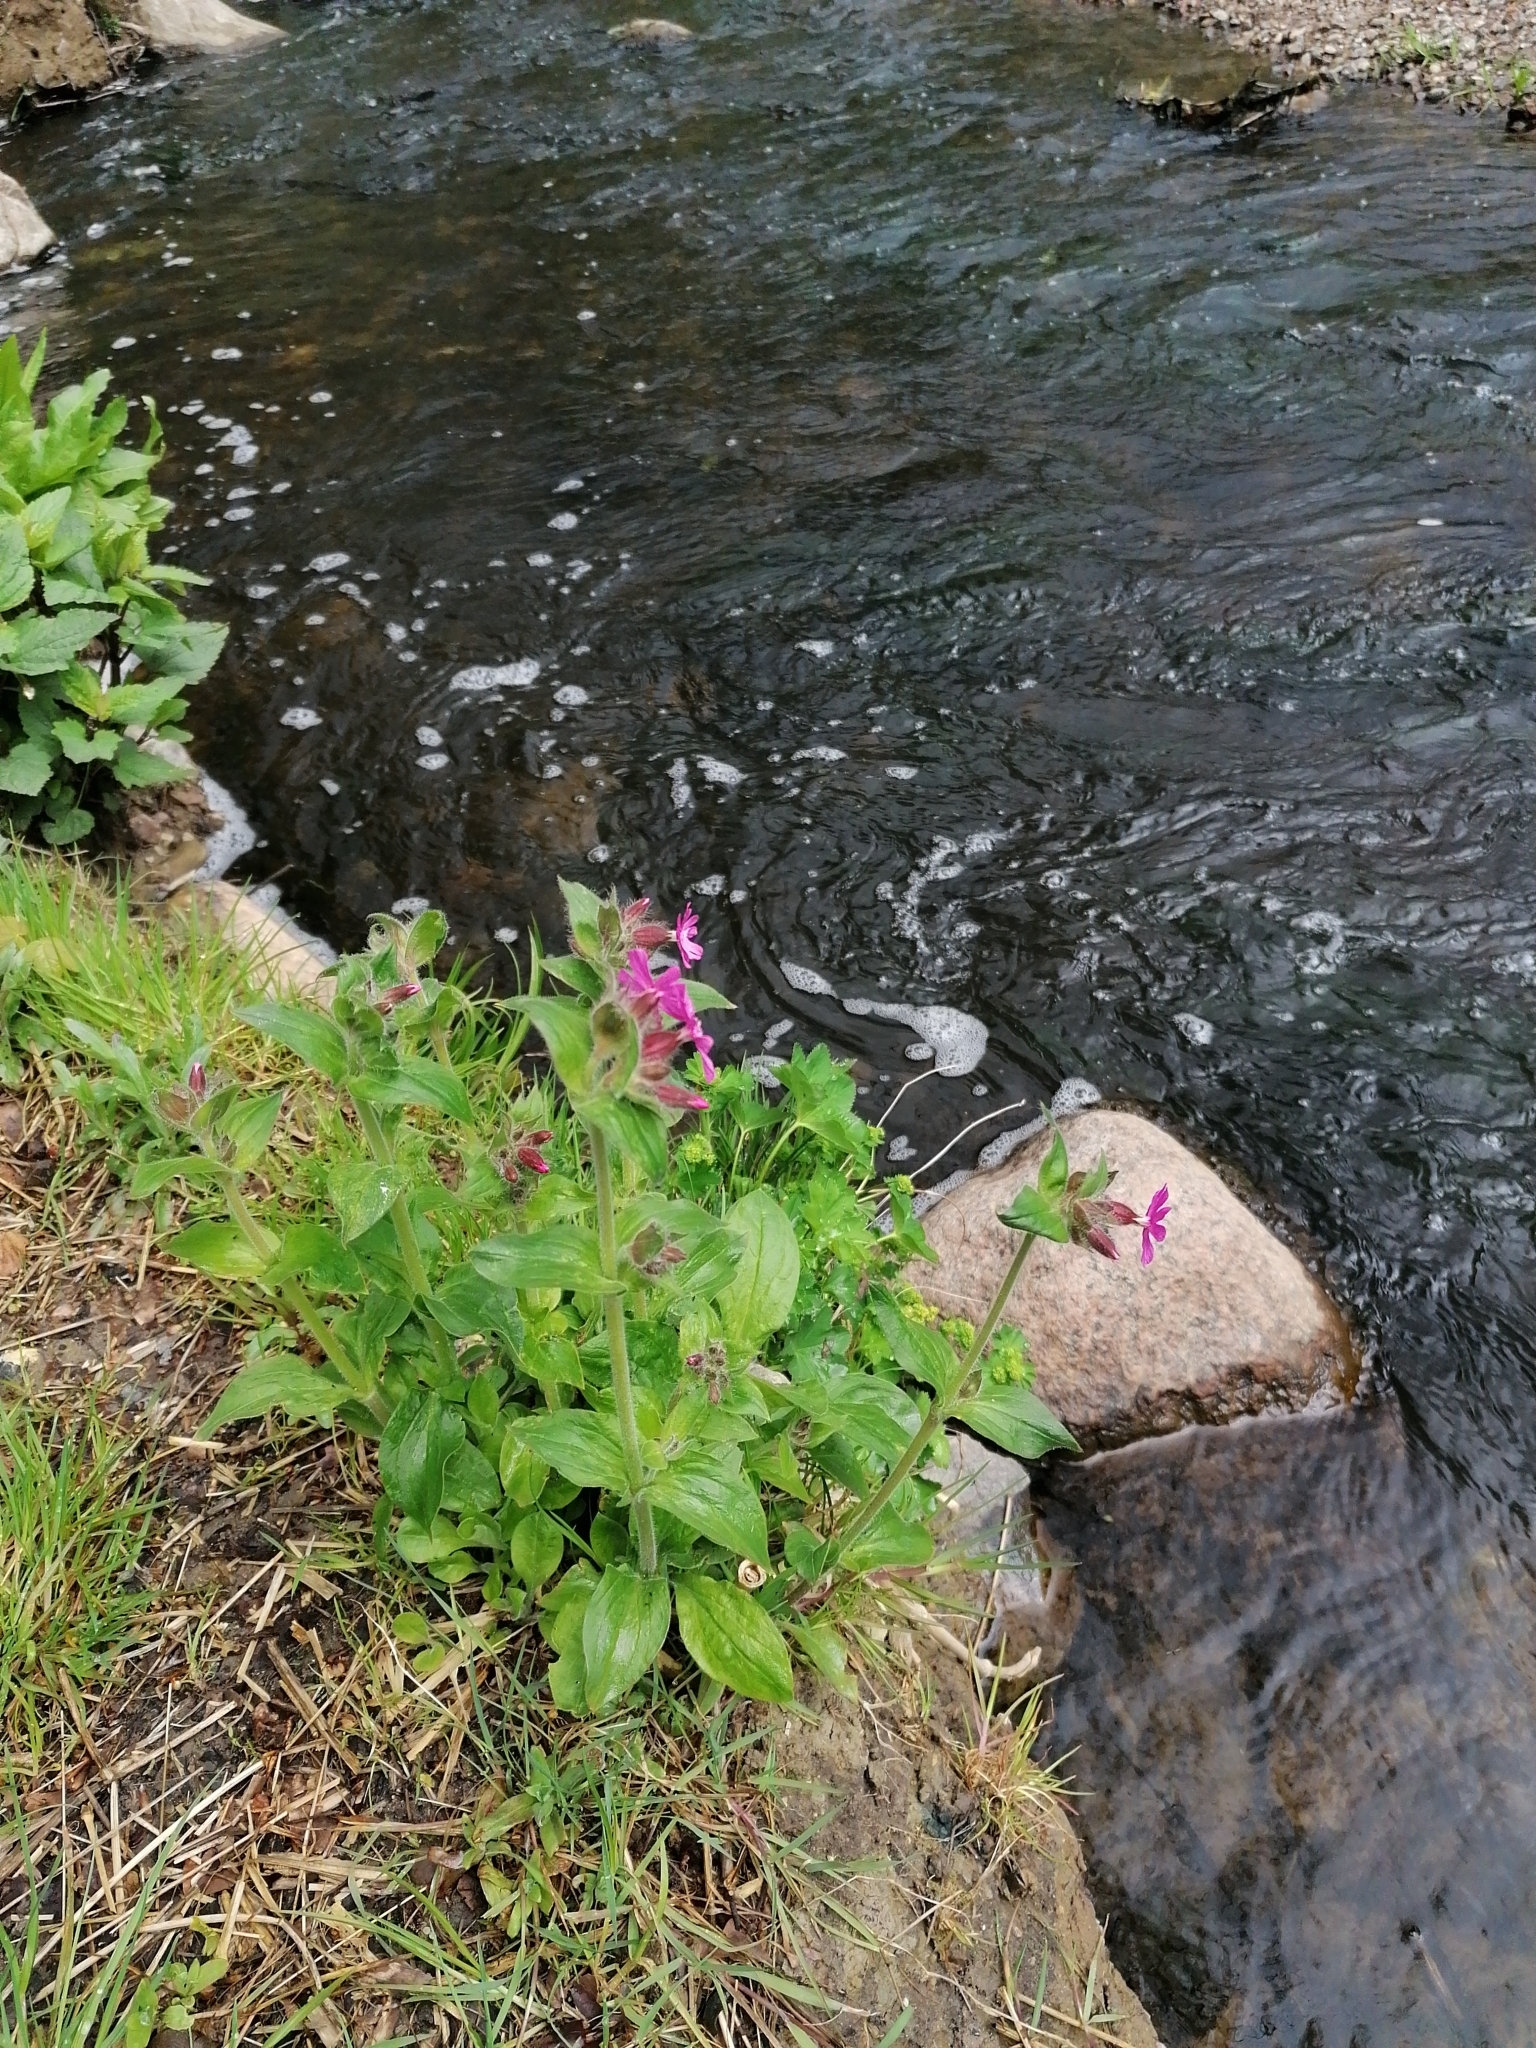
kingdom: Plantae
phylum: Tracheophyta
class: Magnoliopsida
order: Caryophyllales
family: Caryophyllaceae
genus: Silene
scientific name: Silene dioica
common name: Red campion
